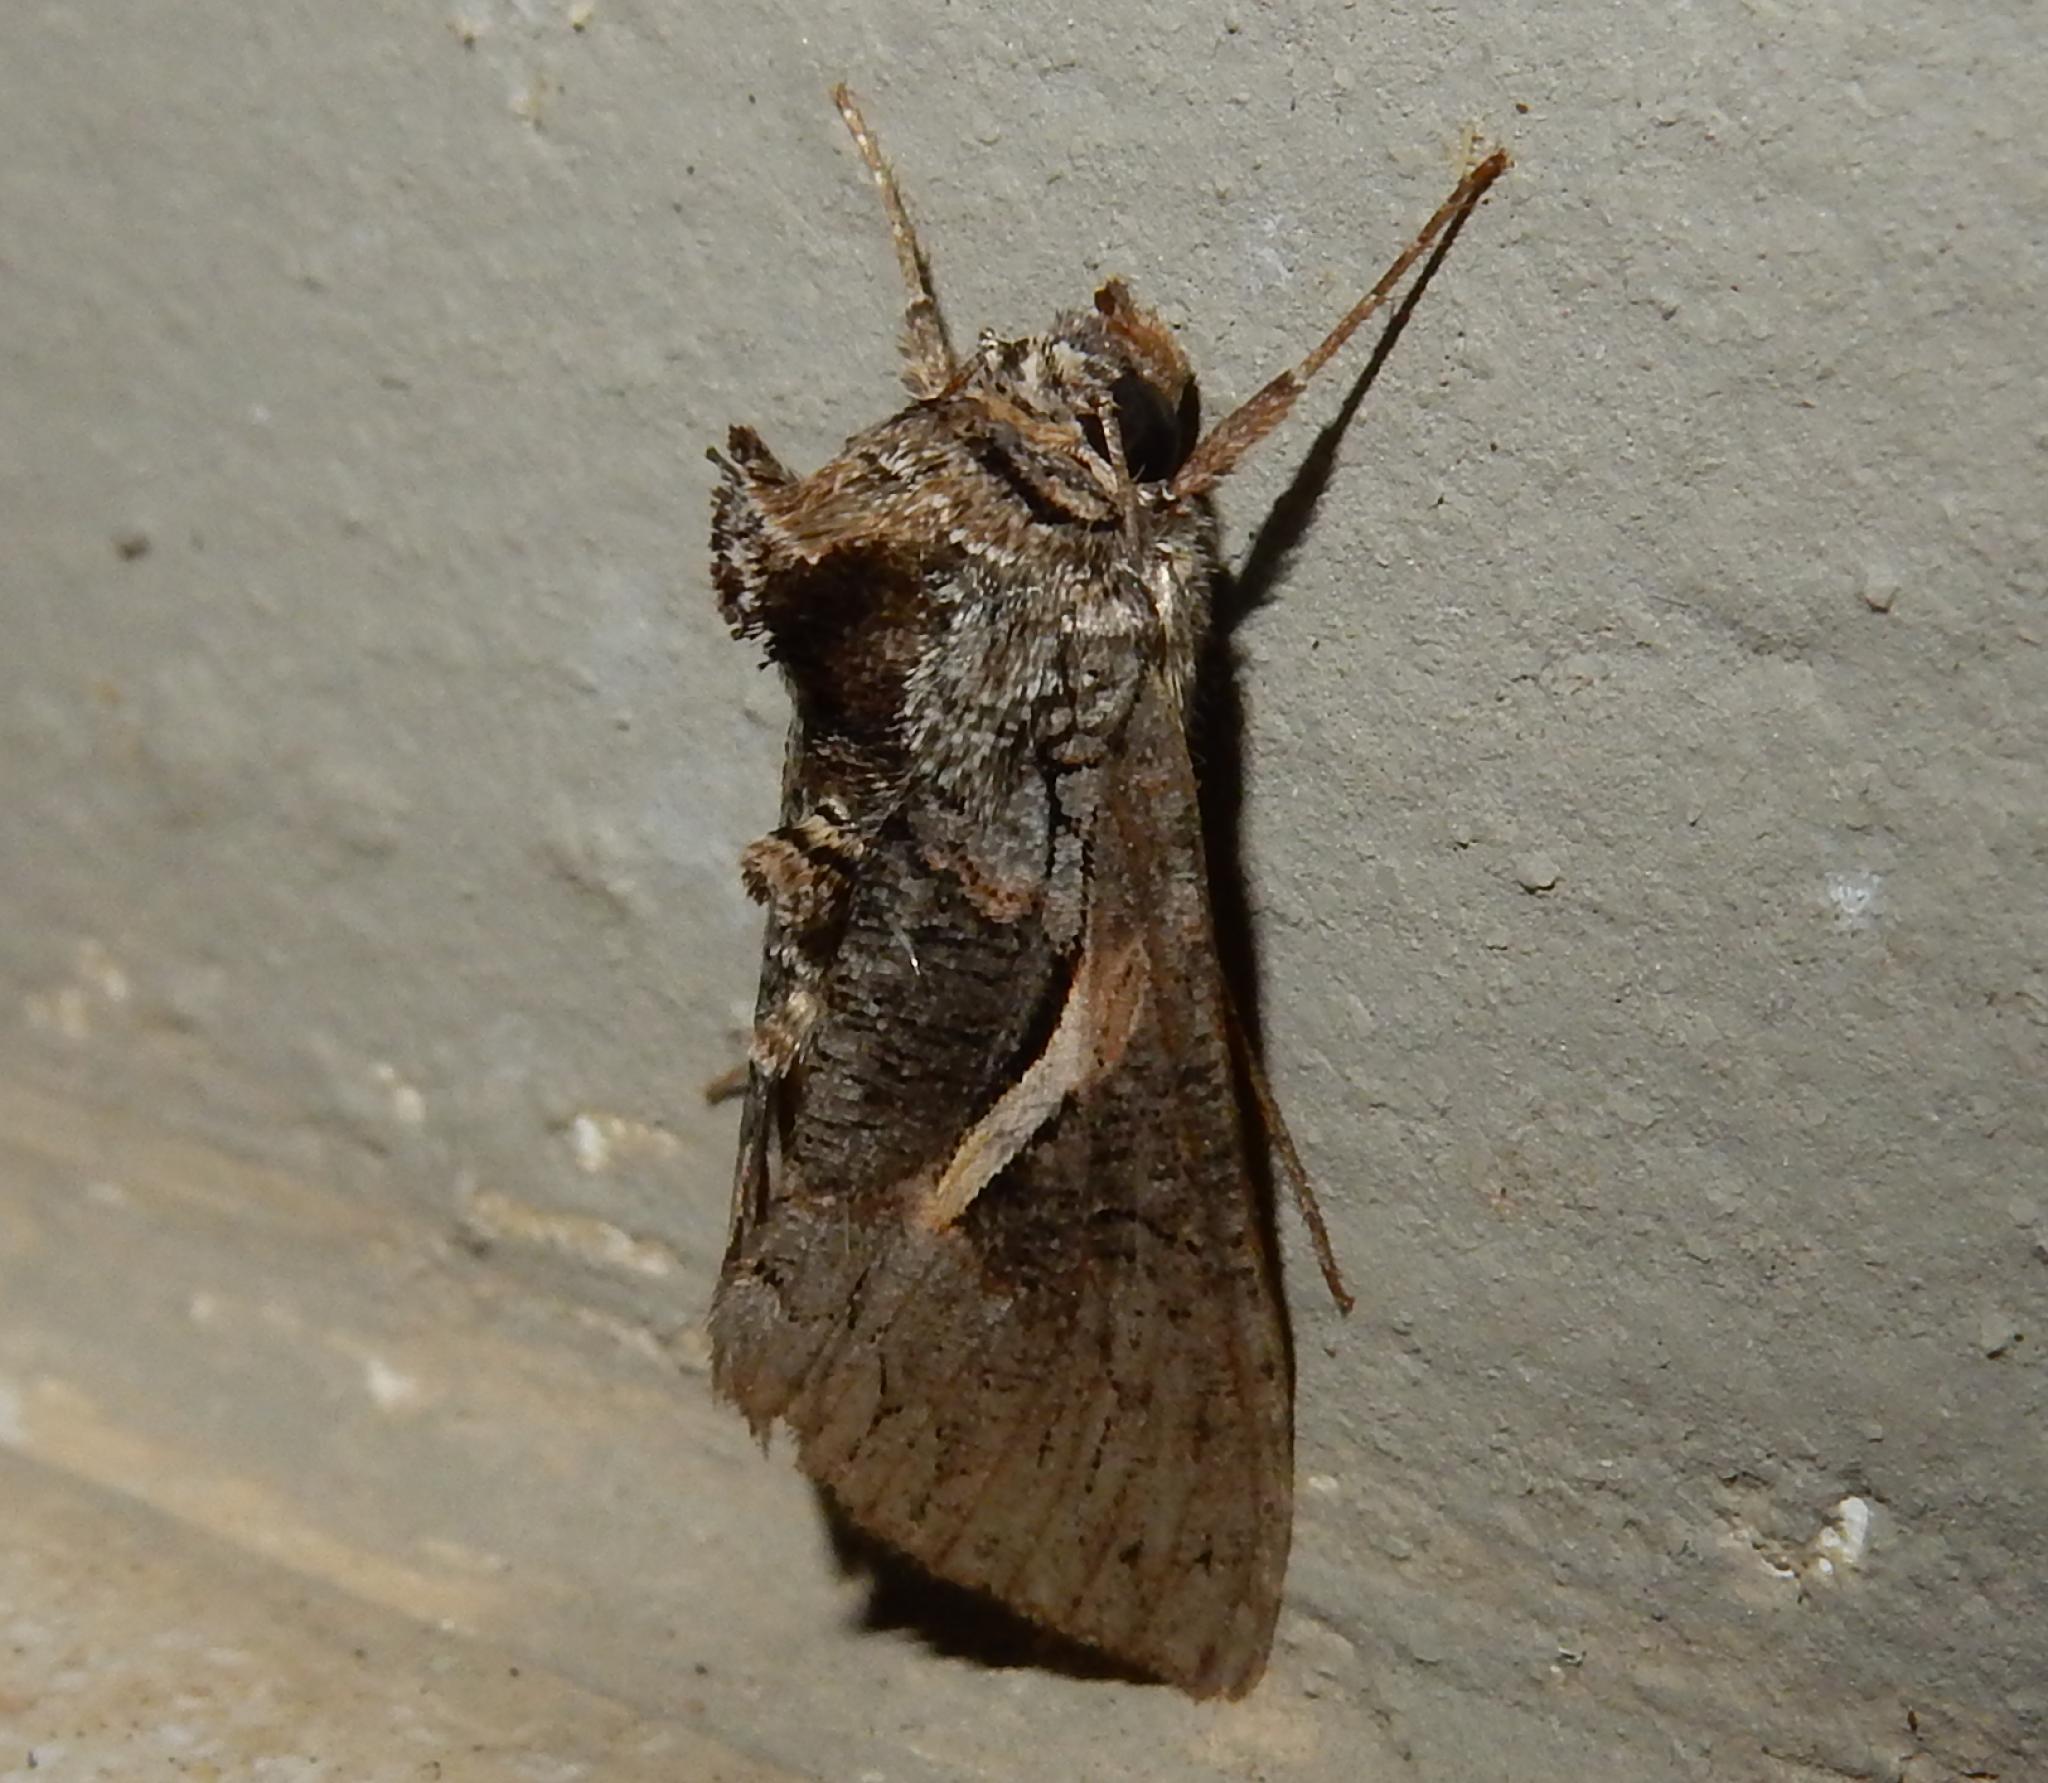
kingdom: Animalia
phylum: Arthropoda
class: Insecta
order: Lepidoptera
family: Noctuidae
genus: Vittaplusia
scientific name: Vittaplusia vittata
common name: Streaked plusia
